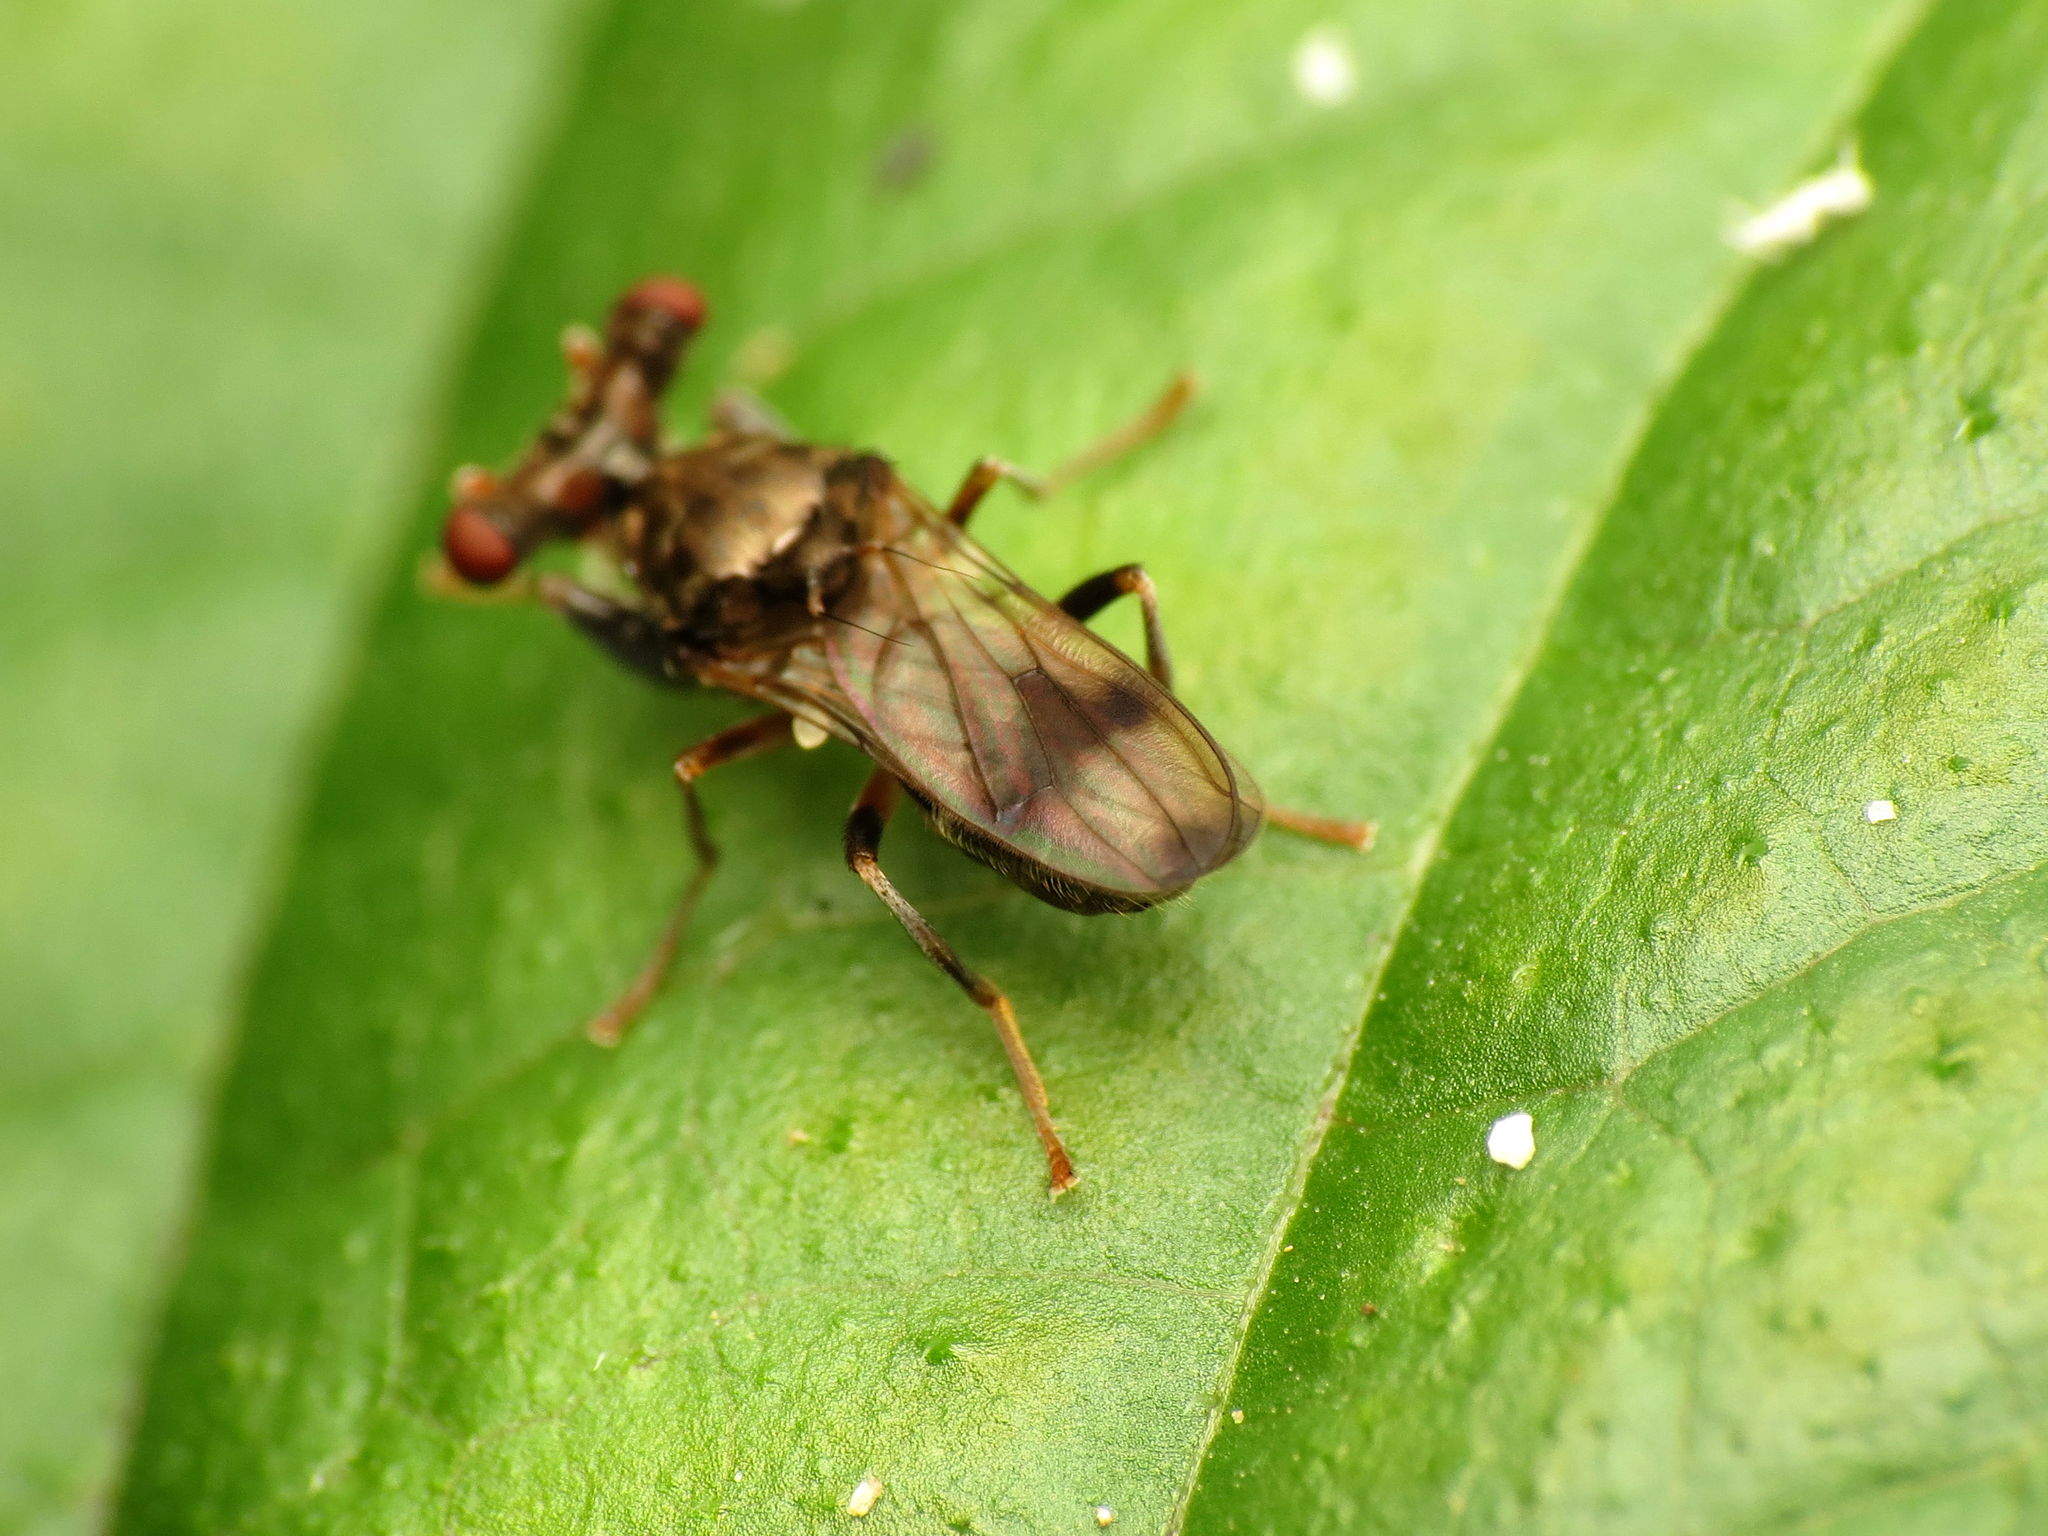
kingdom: Animalia
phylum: Arthropoda
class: Insecta
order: Diptera
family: Diopsidae
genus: Sphyracephala
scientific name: Sphyracephala brevicornis
